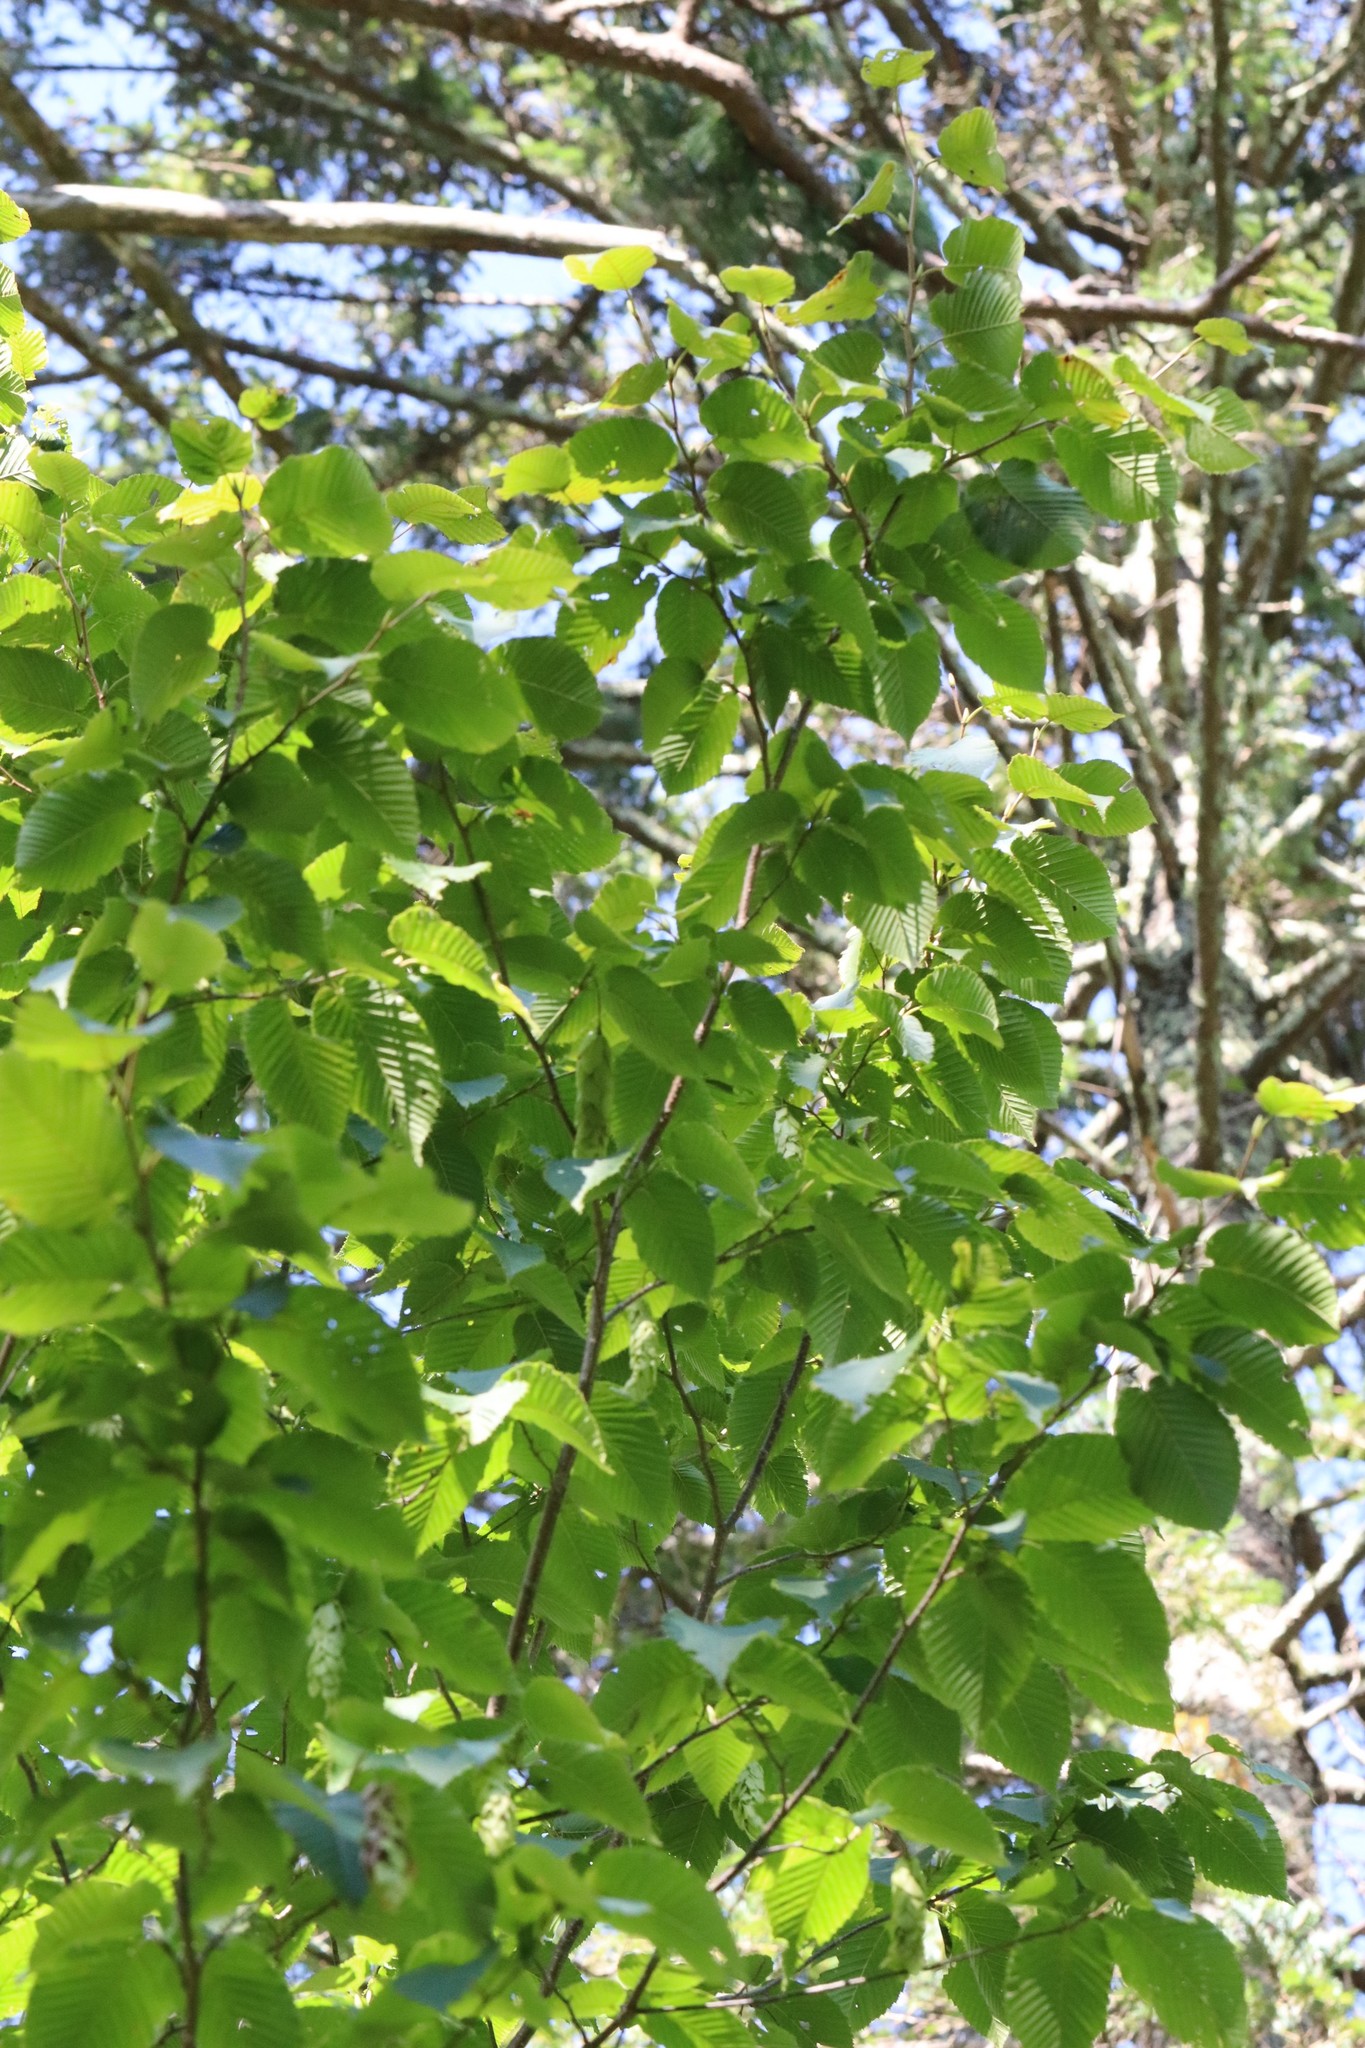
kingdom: Plantae
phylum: Tracheophyta
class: Magnoliopsida
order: Fagales
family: Betulaceae
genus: Carpinus
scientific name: Carpinus cordata
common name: Sawa hornbeam
